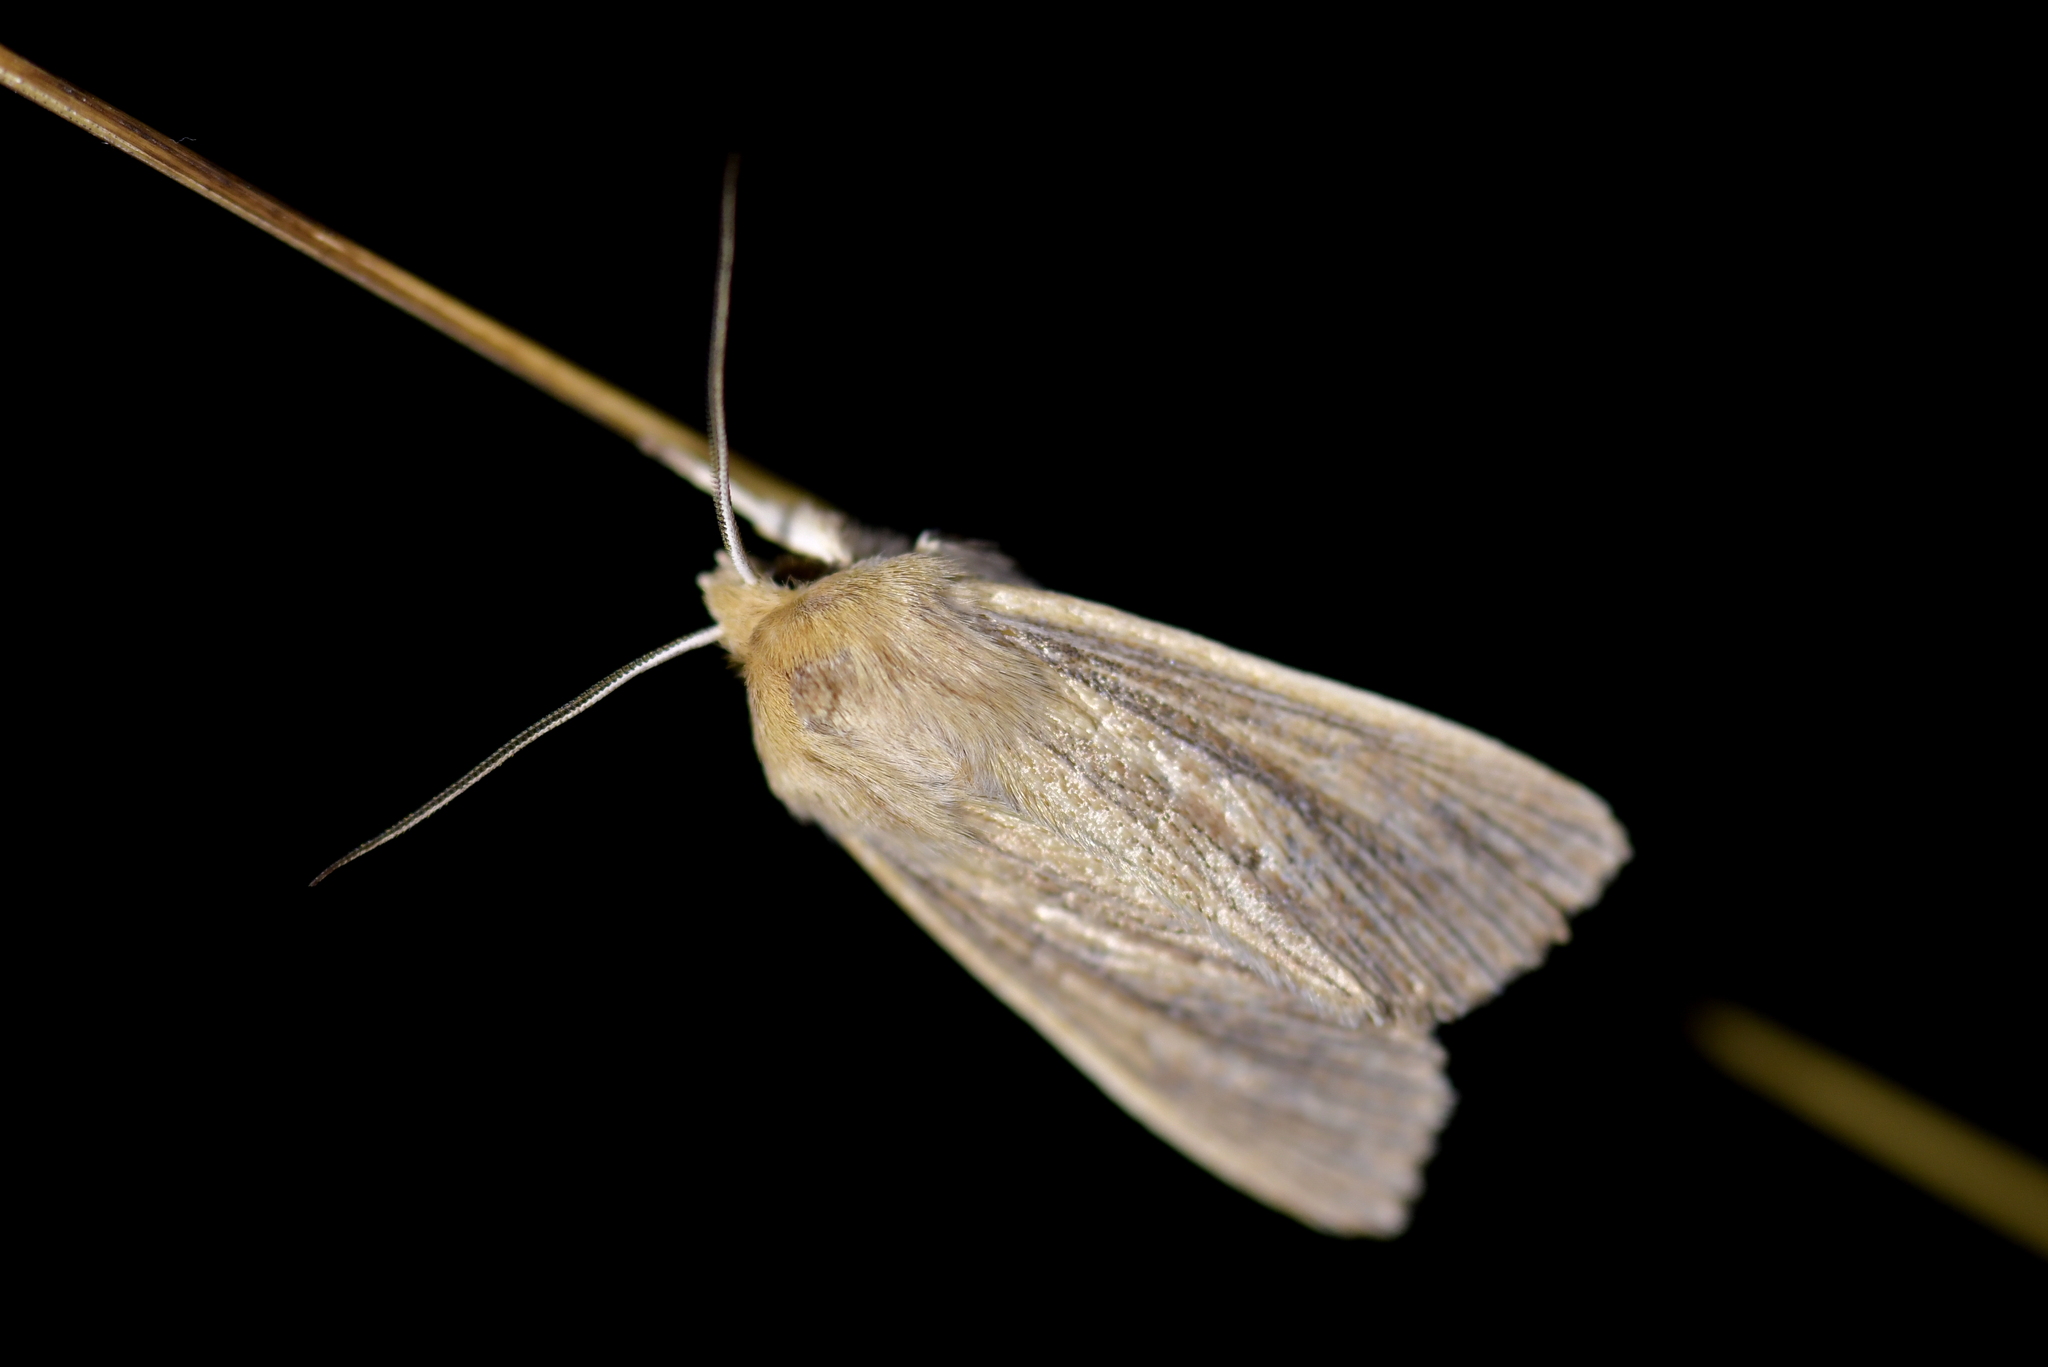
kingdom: Animalia
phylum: Arthropoda
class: Insecta
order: Lepidoptera
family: Noctuidae
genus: Ichneutica
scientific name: Ichneutica arotis
